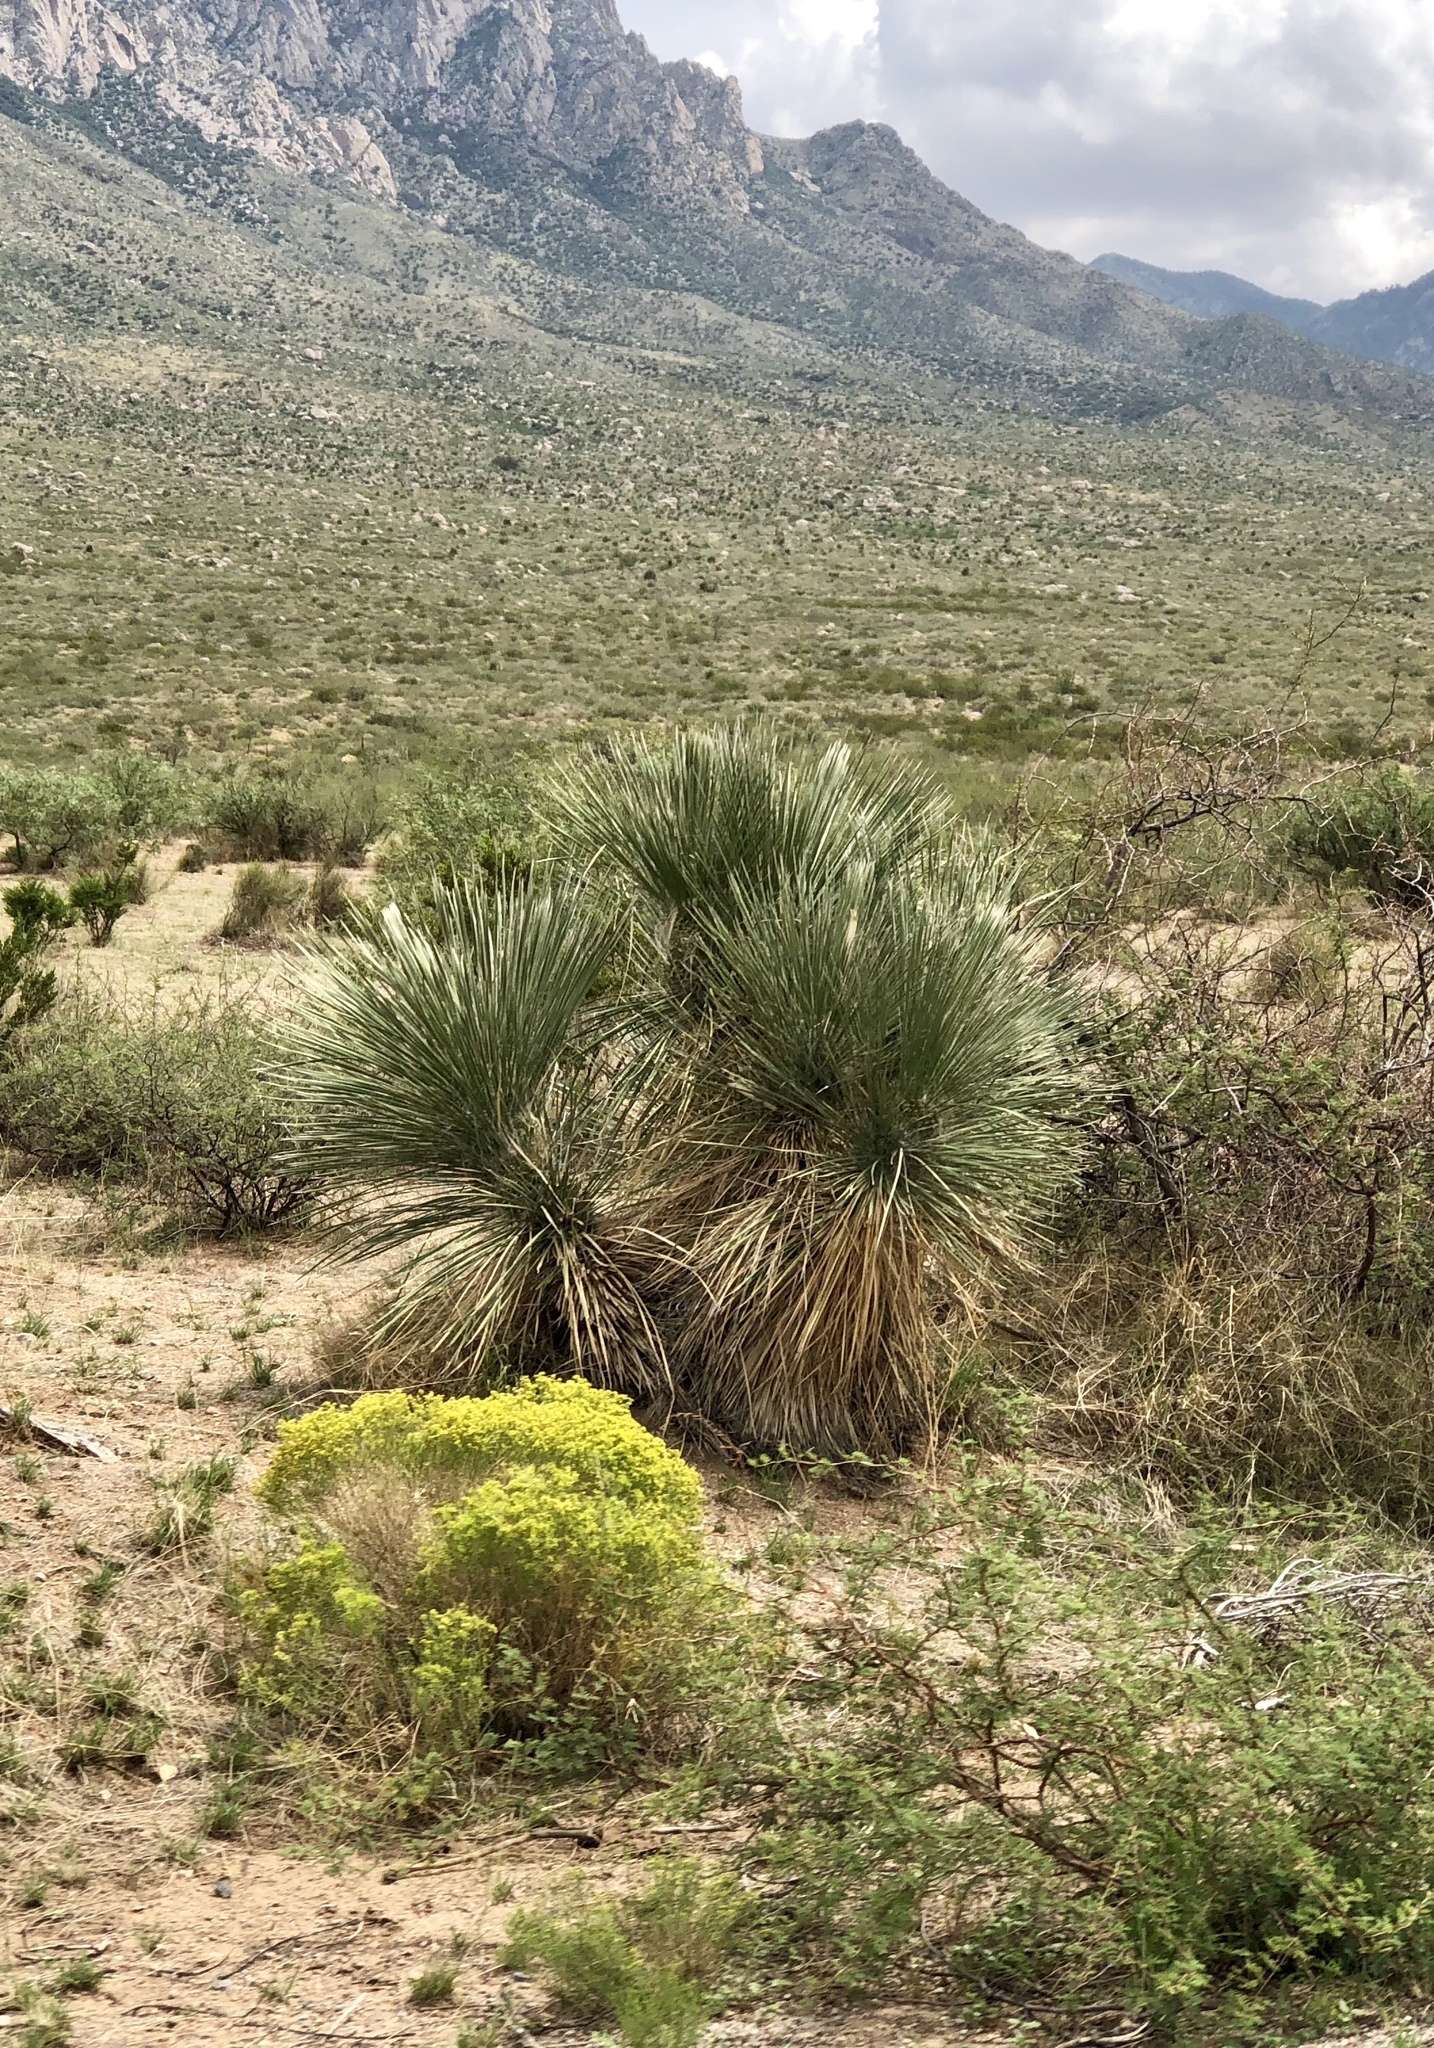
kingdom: Plantae
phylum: Tracheophyta
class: Liliopsida
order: Asparagales
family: Asparagaceae
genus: Yucca
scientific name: Yucca elata
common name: Palmella
